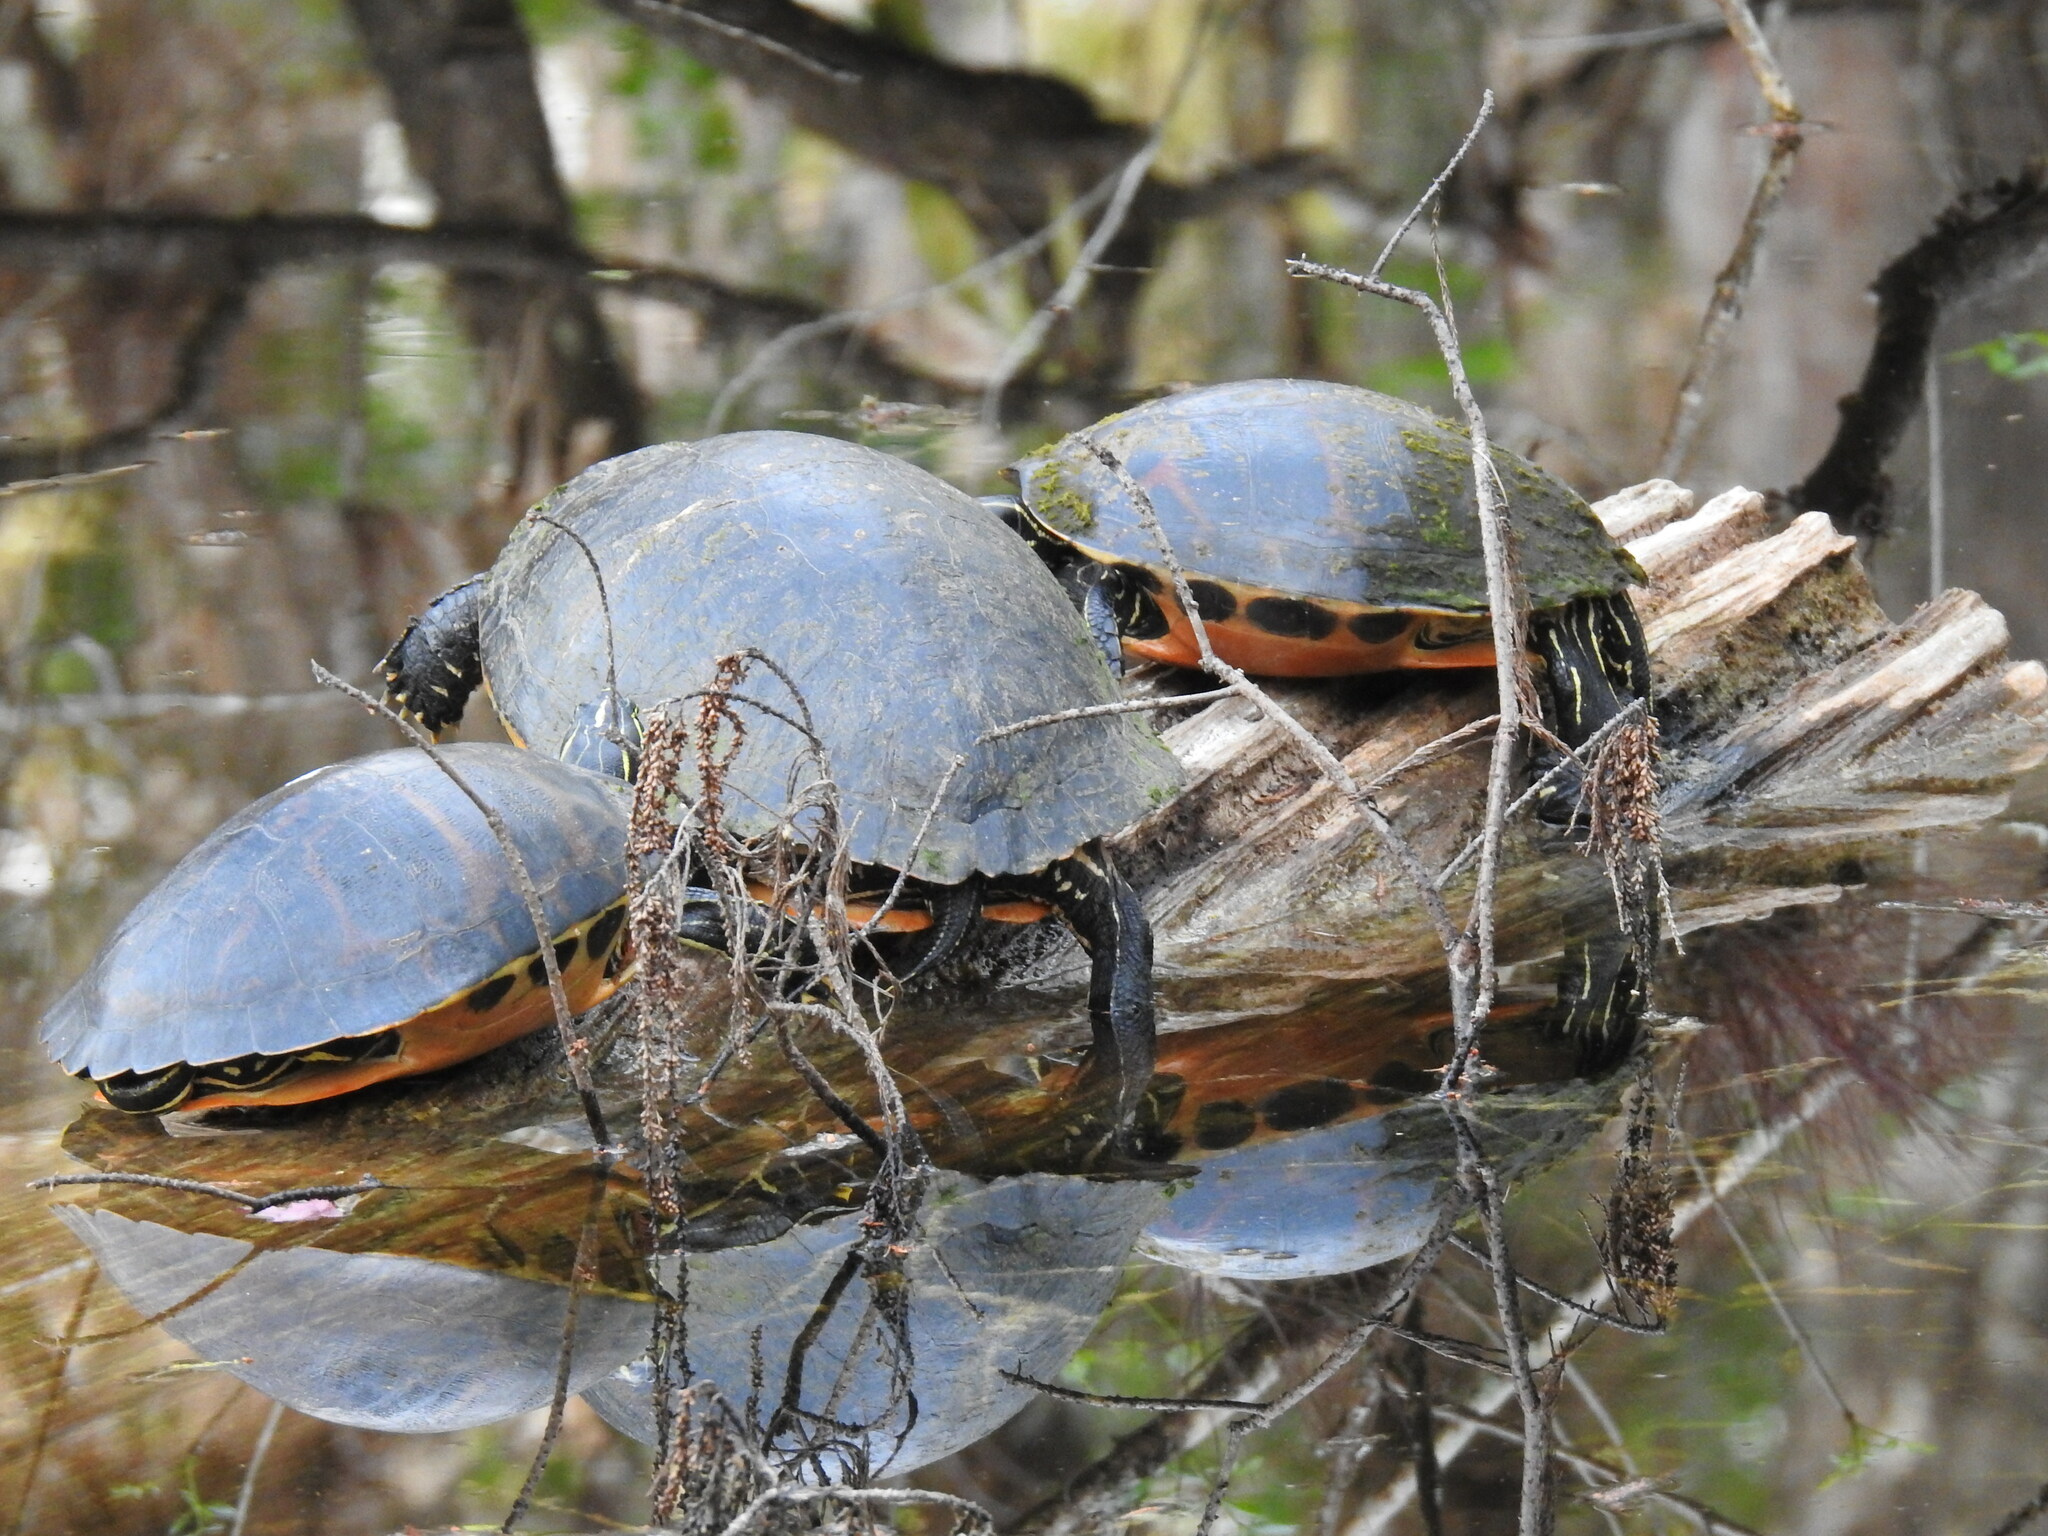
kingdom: Animalia
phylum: Chordata
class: Testudines
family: Emydidae
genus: Pseudemys
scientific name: Pseudemys nelsoni
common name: Florida red-bellied turtle
